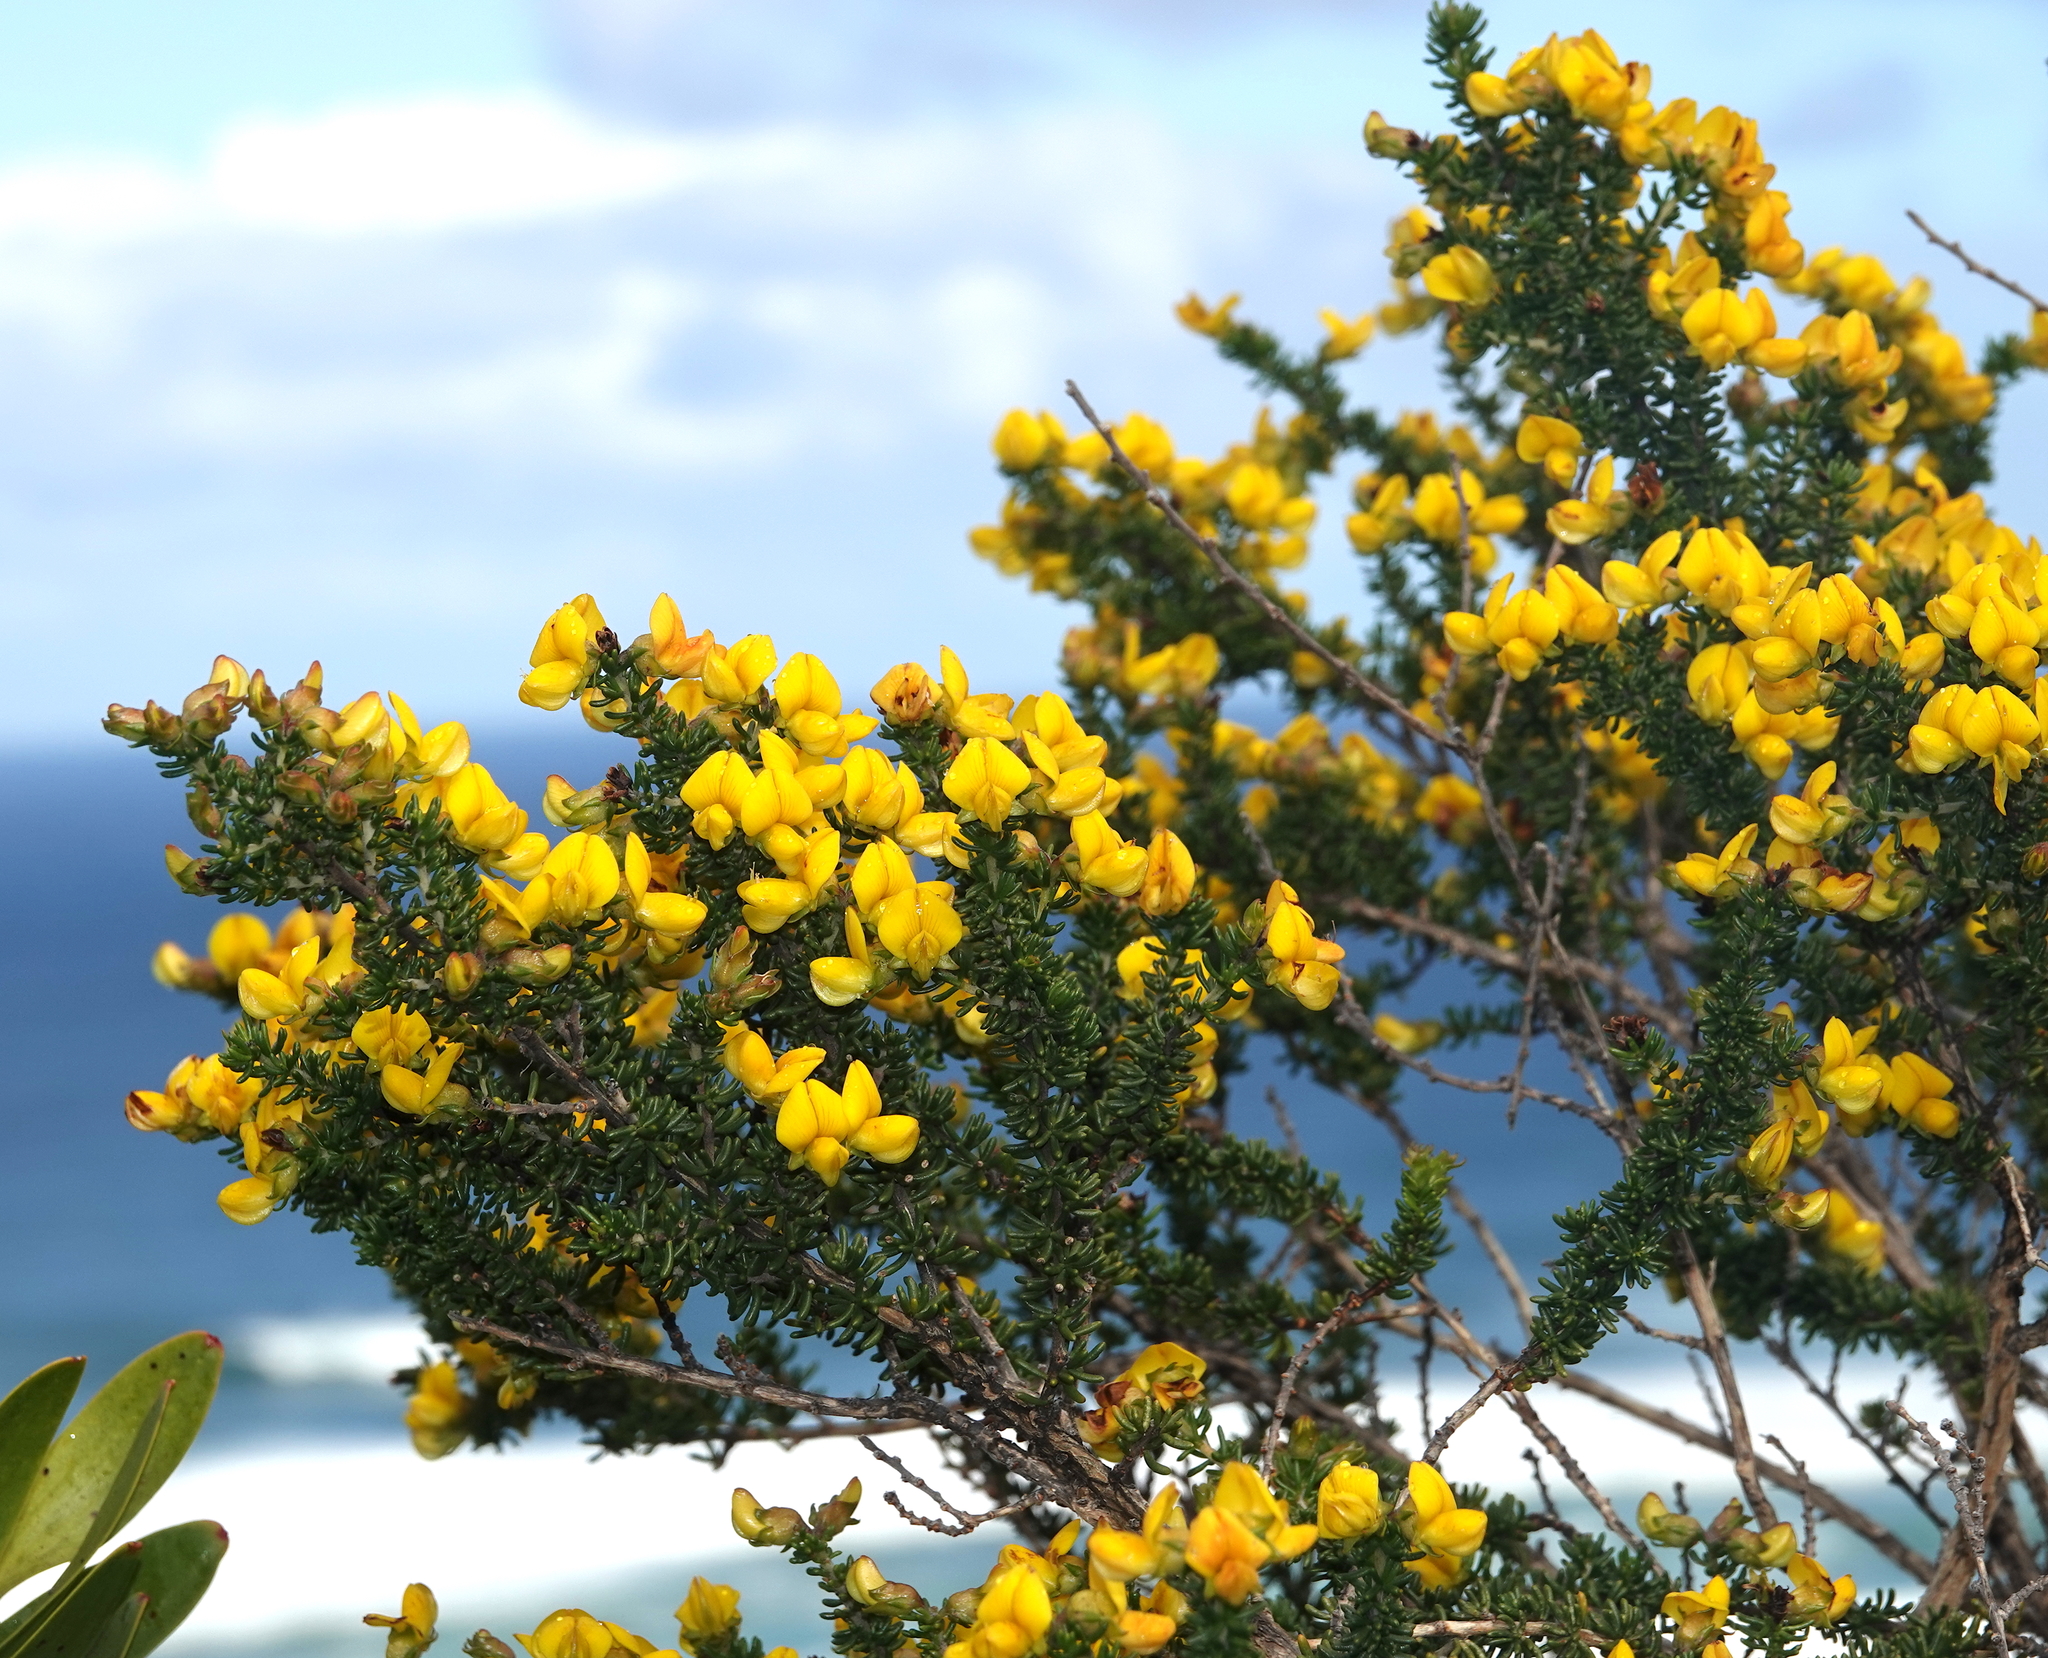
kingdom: Plantae
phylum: Tracheophyta
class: Magnoliopsida
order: Fabales
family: Fabaceae
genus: Aspalathus
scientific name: Aspalathus carnosa
